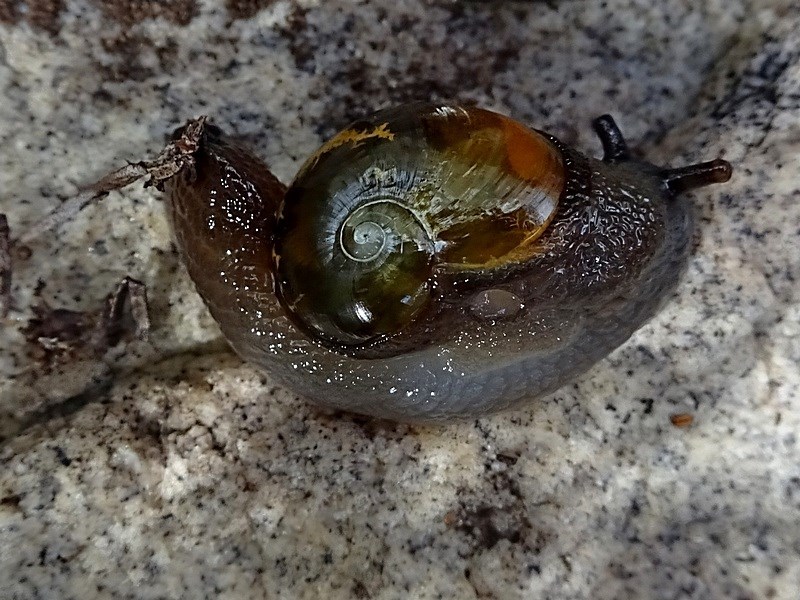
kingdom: Animalia
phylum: Mollusca
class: Gastropoda
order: Stylommatophora
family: Helicarionidae
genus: Helicarion
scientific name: Helicarion cuvieri
